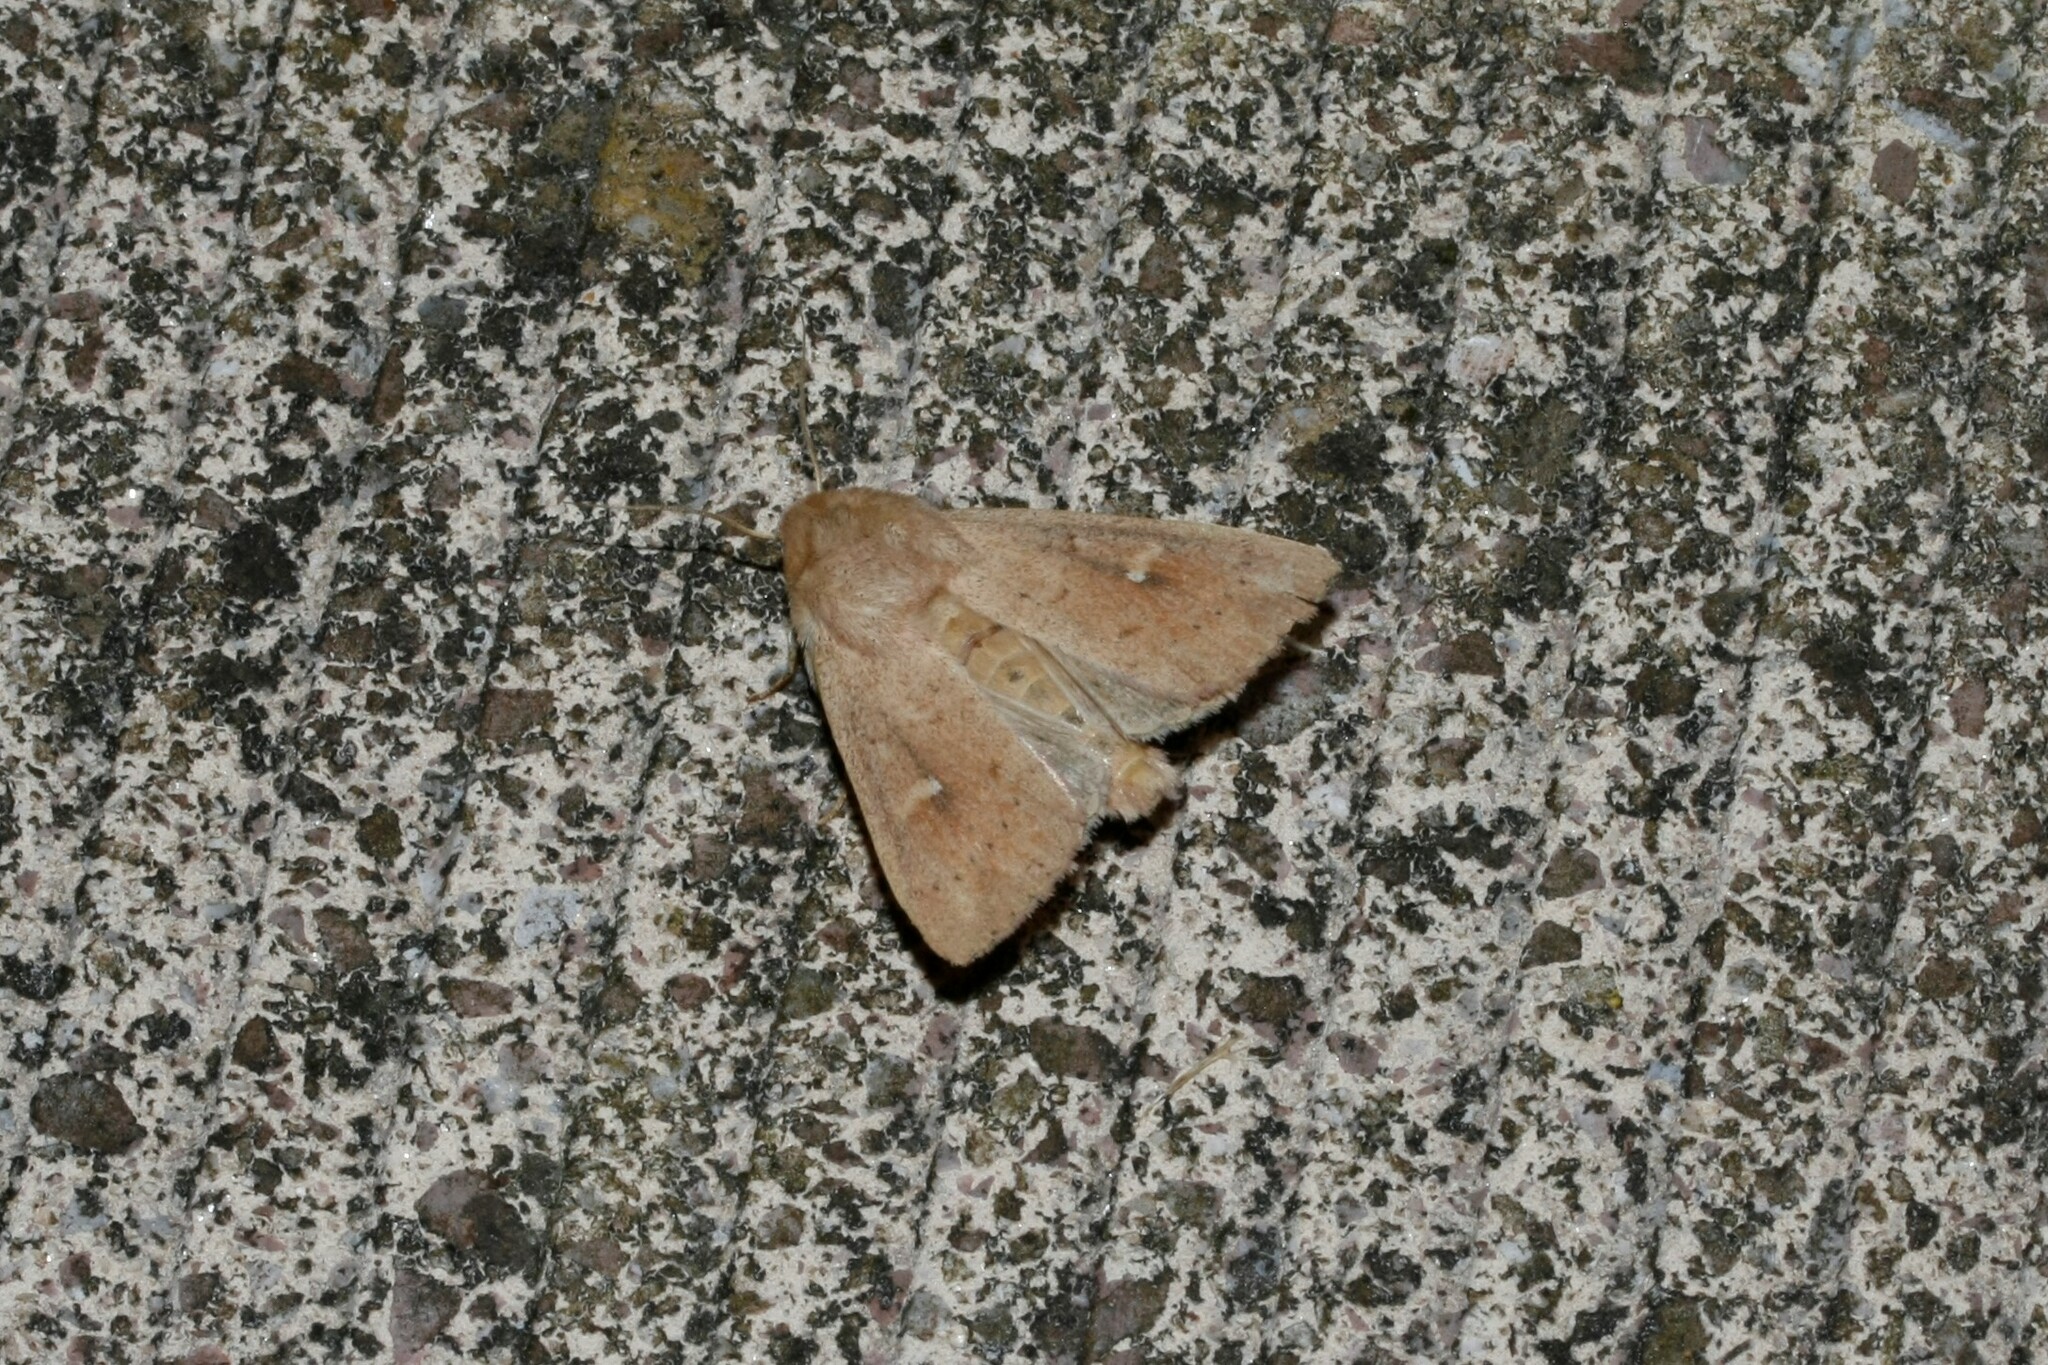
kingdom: Animalia
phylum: Arthropoda
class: Insecta
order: Lepidoptera
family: Noctuidae
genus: Mythimna
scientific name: Mythimna ferrago
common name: Clay
